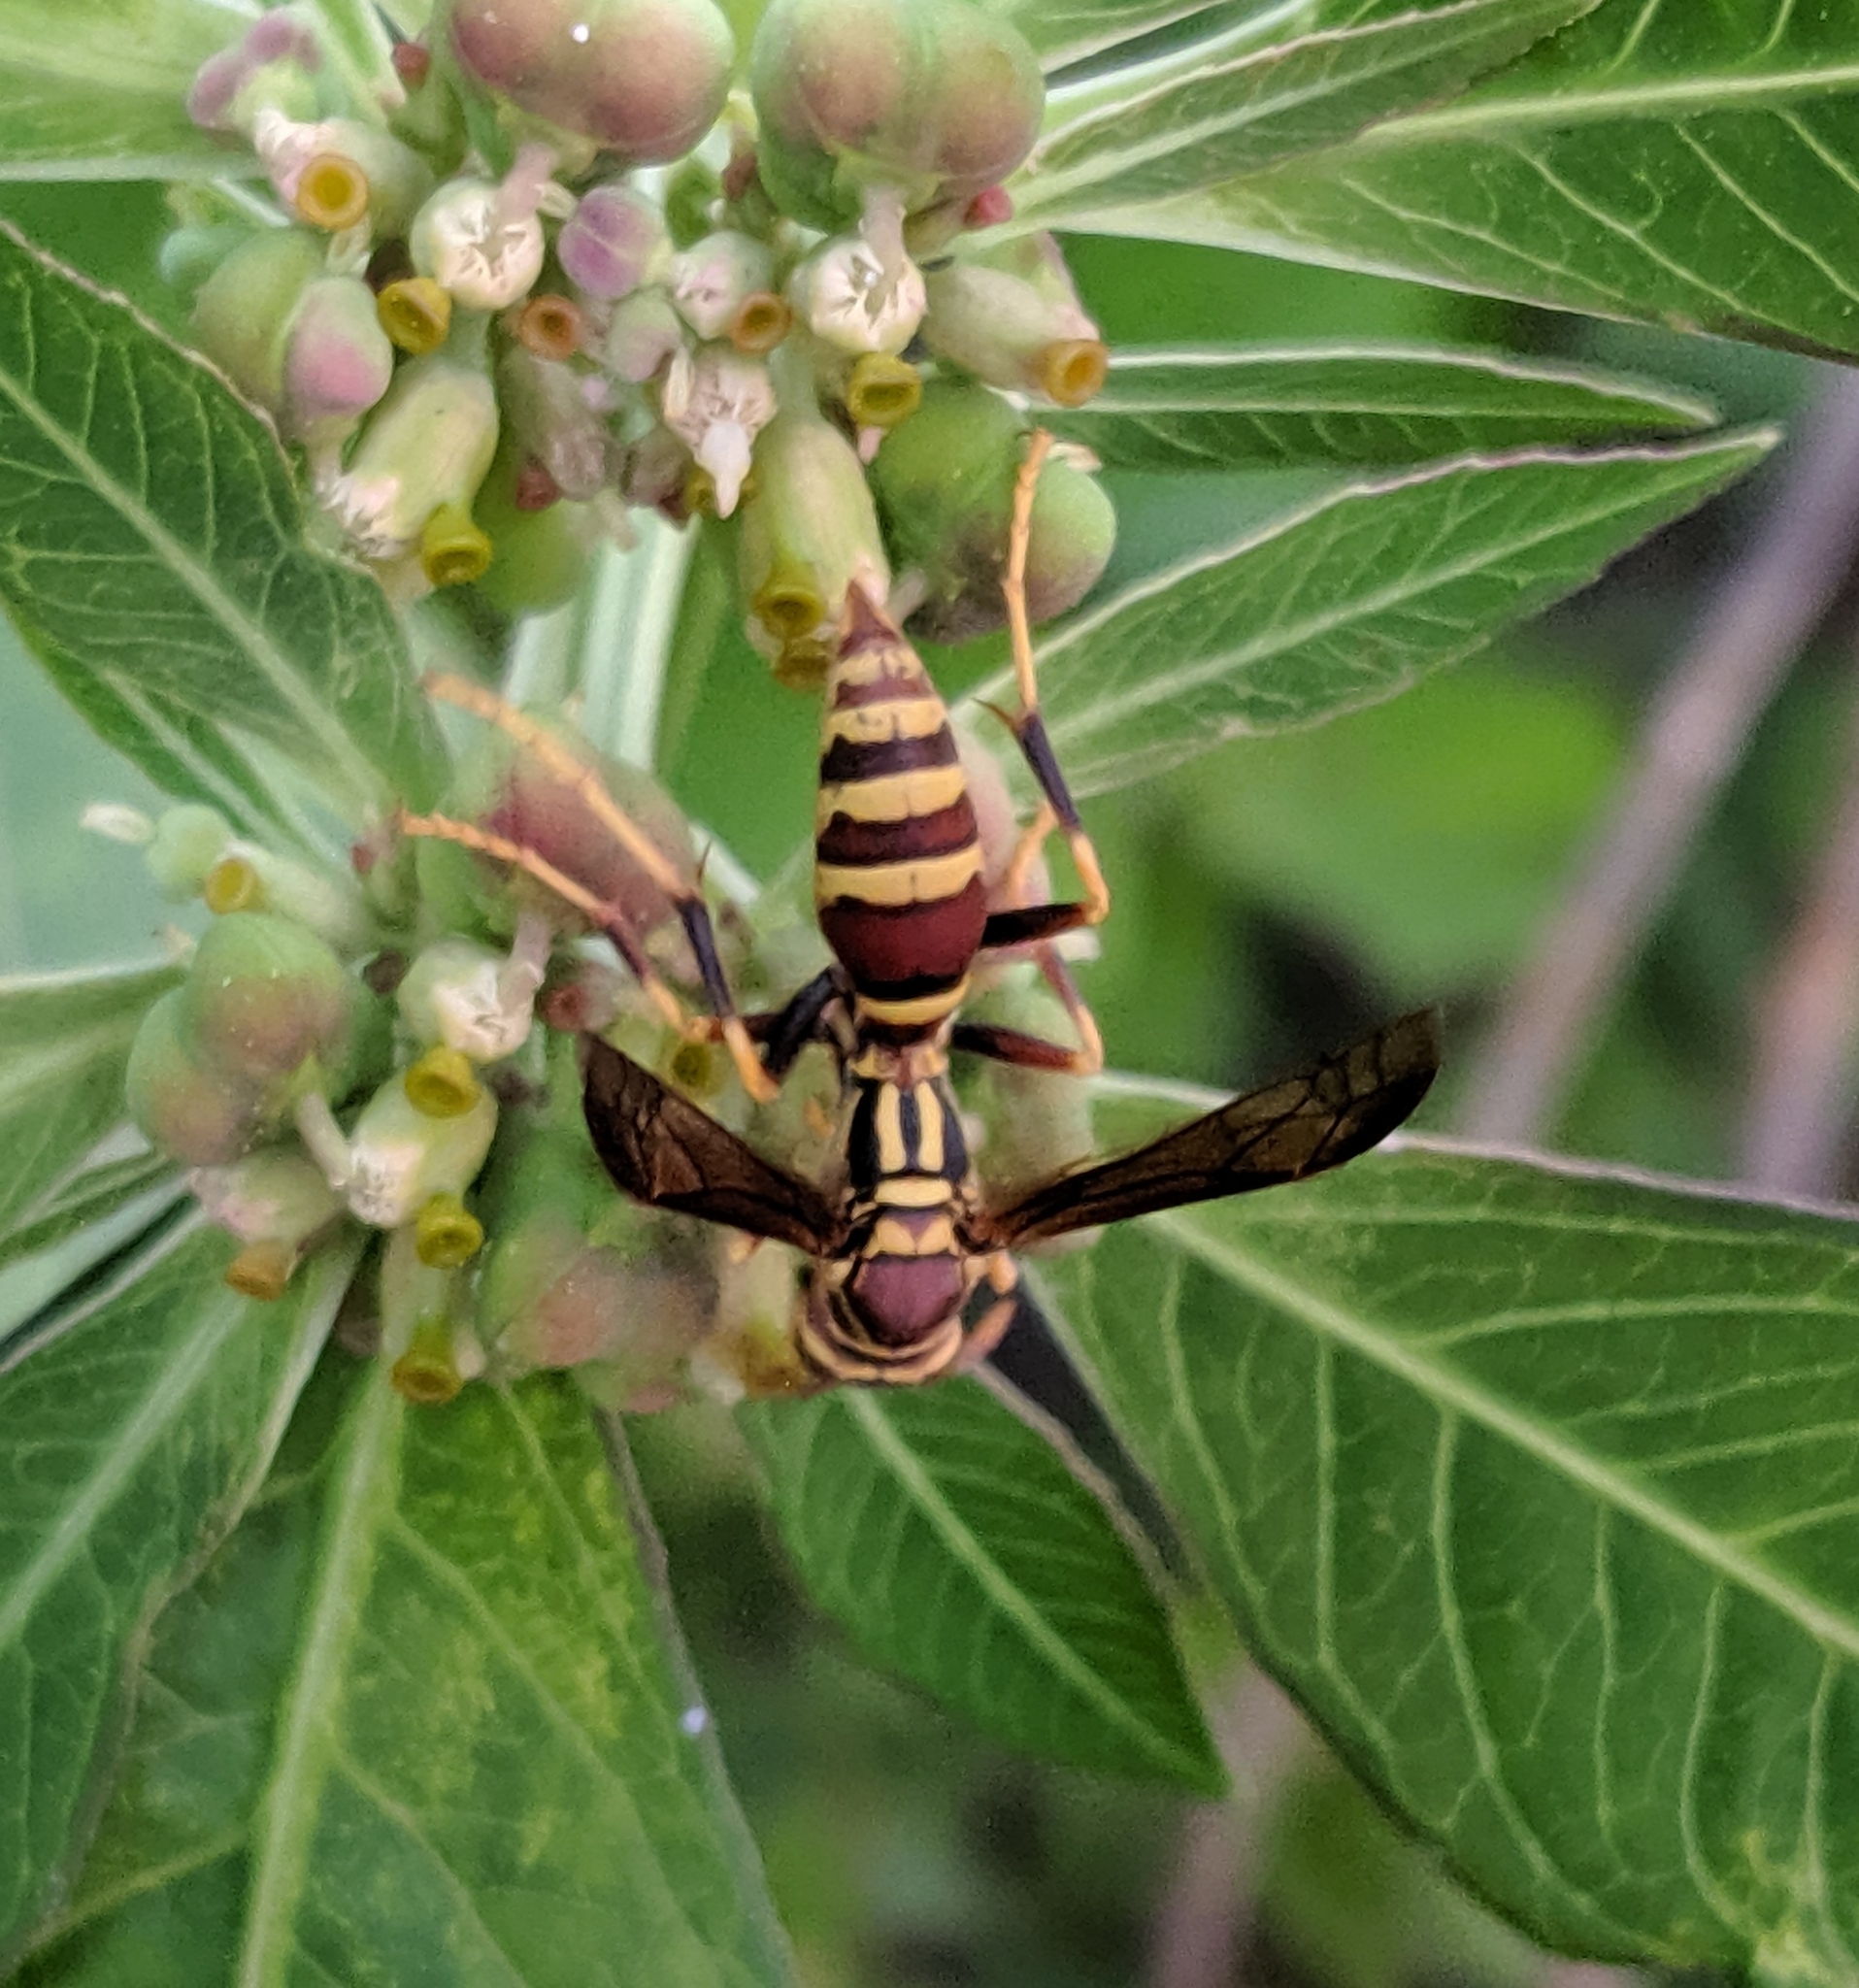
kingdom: Animalia
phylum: Arthropoda
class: Insecta
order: Hymenoptera
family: Eumenidae
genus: Polistes
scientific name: Polistes exclamans
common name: Paper wasp
